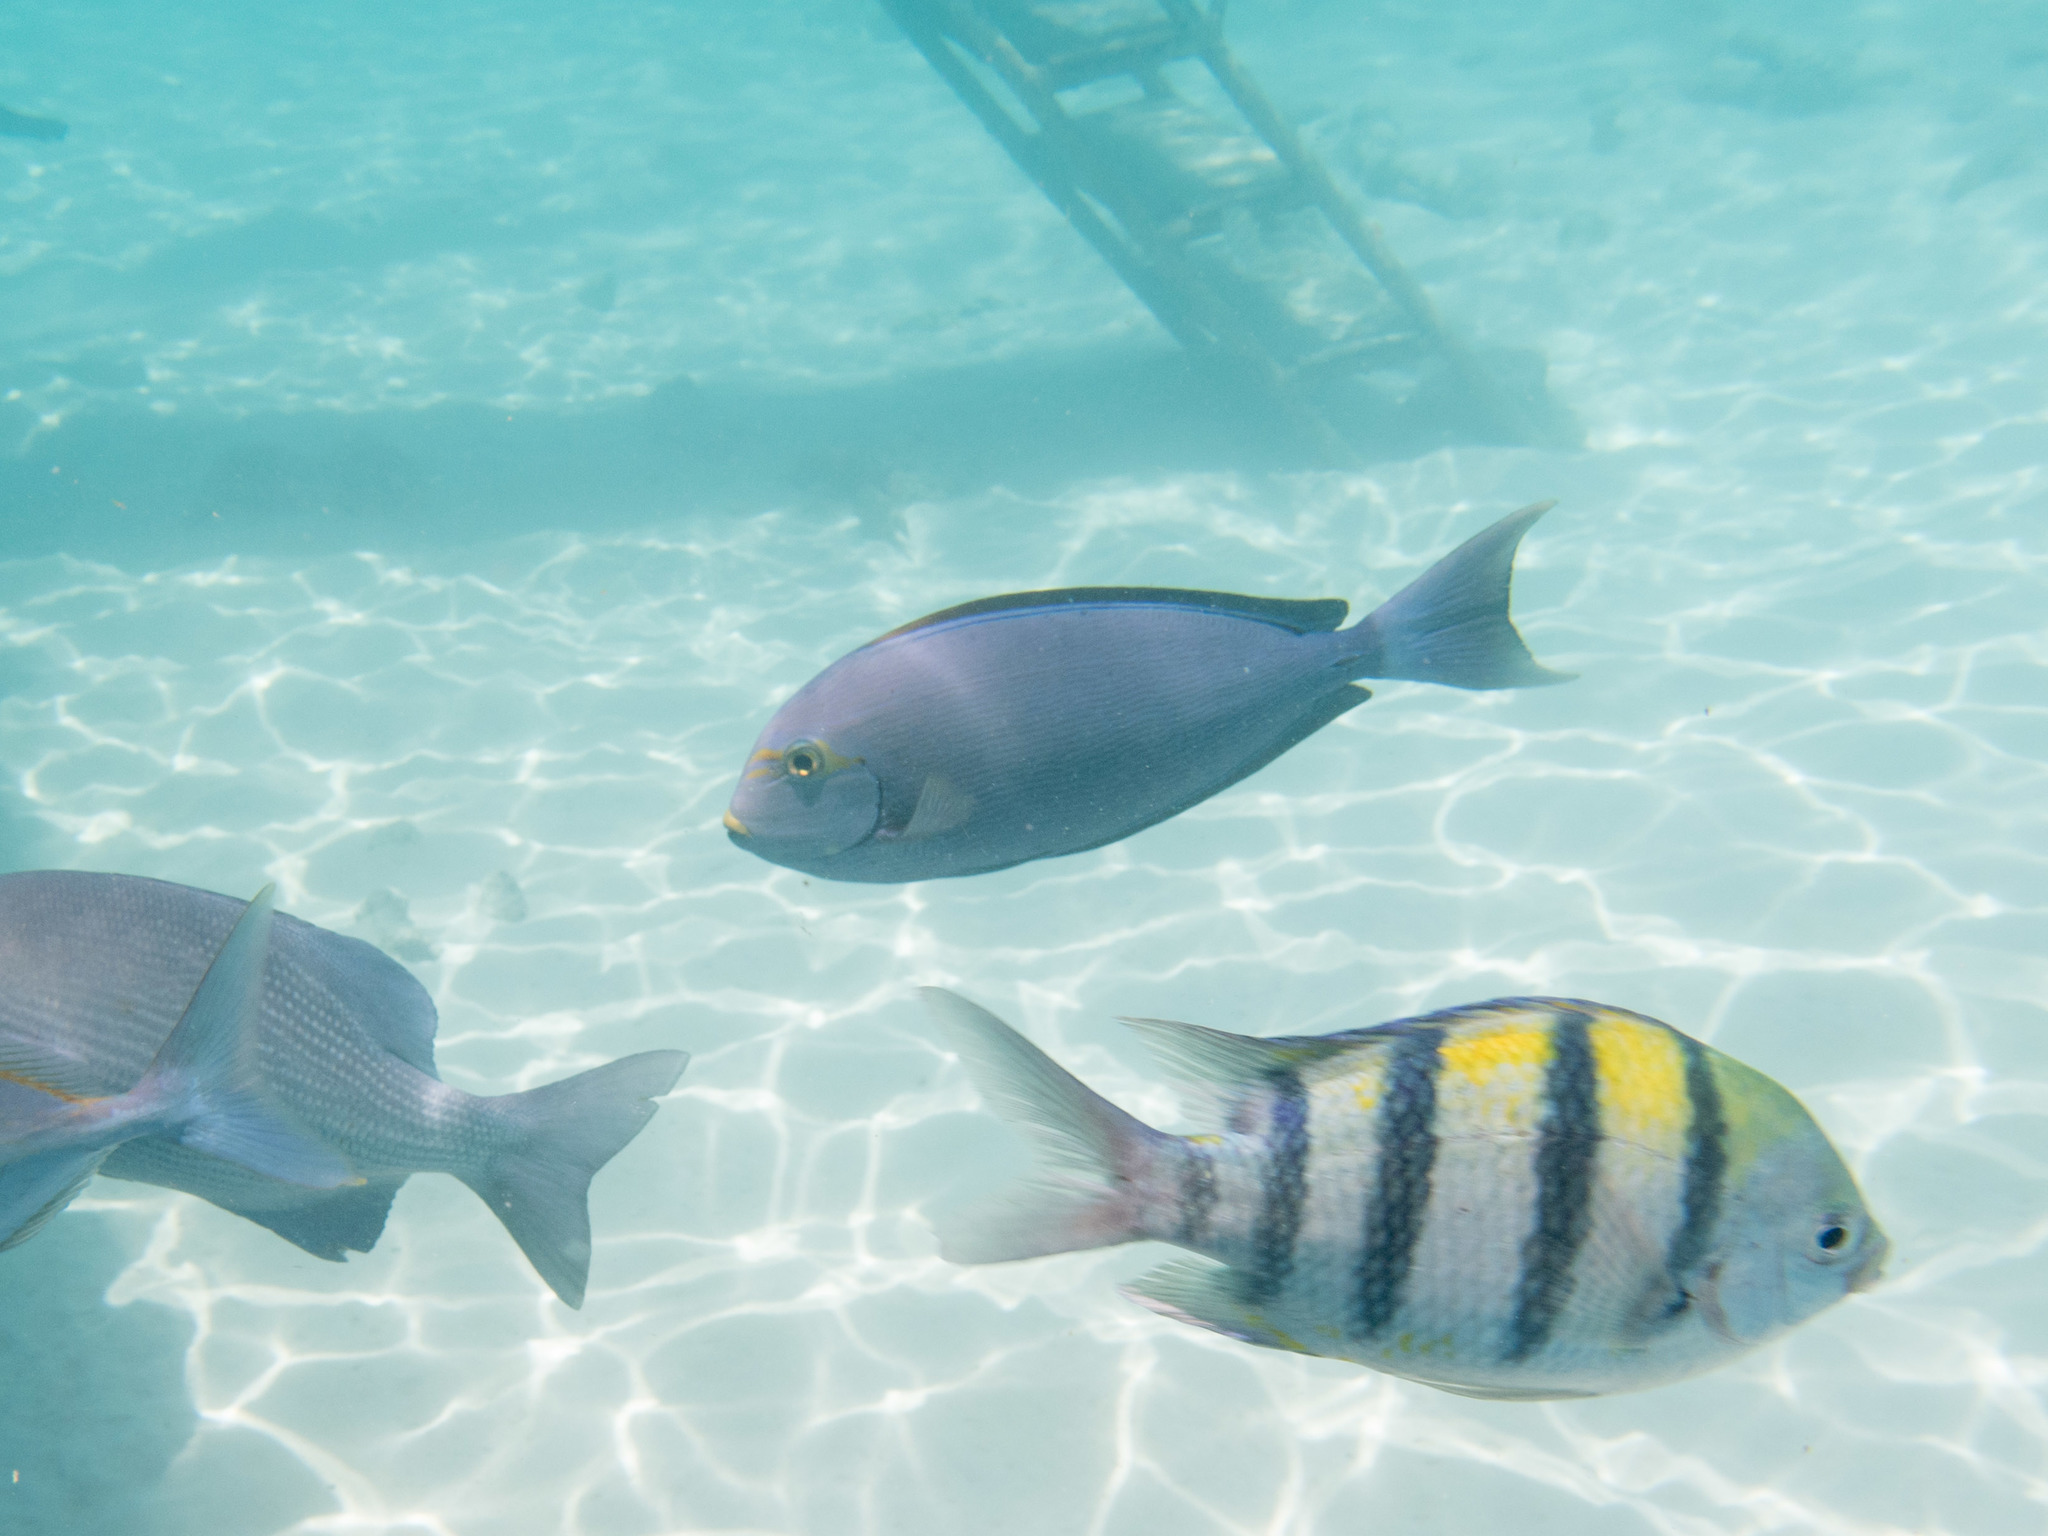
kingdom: Animalia
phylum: Chordata
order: Perciformes
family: Acanthuridae
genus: Acanthurus
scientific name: Acanthurus mata
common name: Bleeker's surgeonfish
